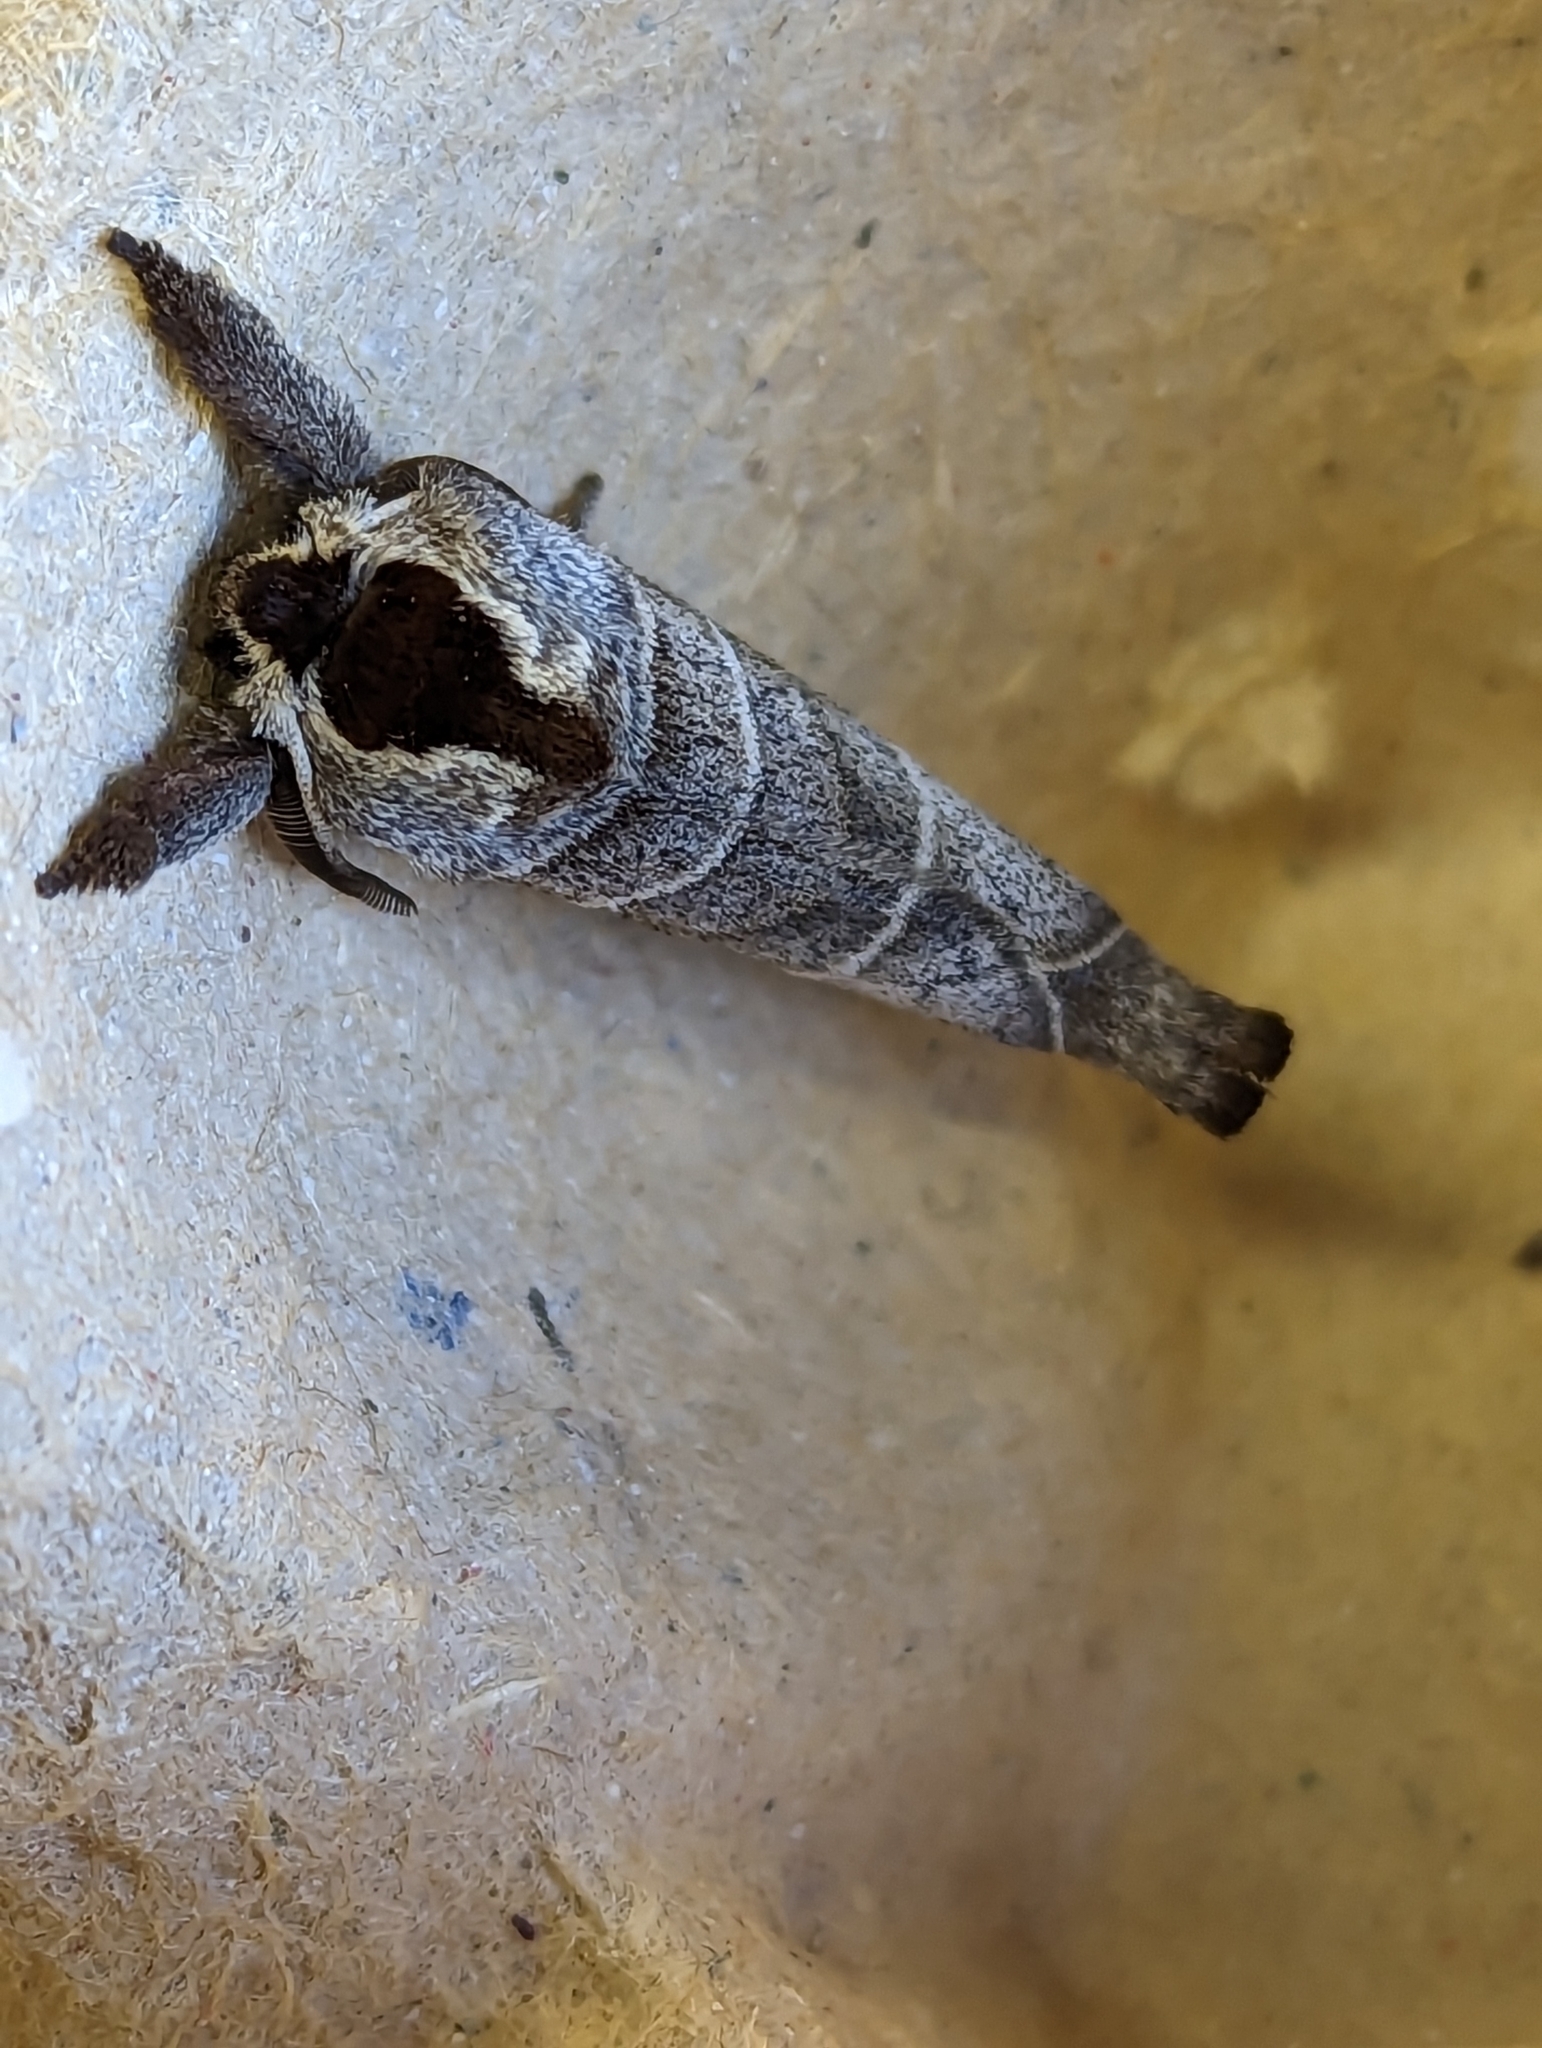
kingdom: Animalia
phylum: Arthropoda
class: Insecta
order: Lepidoptera
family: Notodontidae
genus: Clostera
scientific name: Clostera curtula
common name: Chocolate-tip
